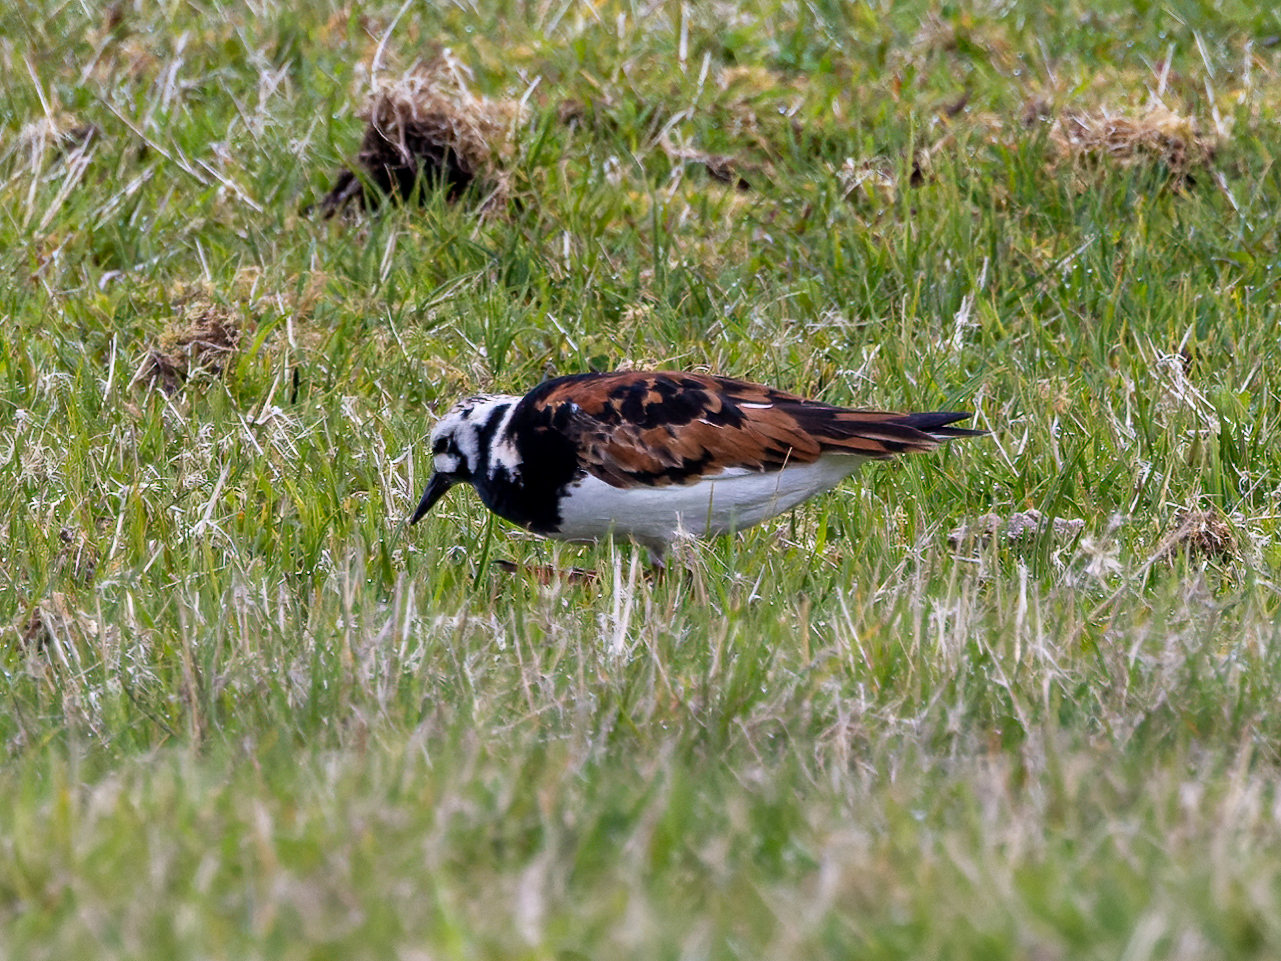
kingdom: Animalia
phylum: Chordata
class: Aves
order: Charadriiformes
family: Scolopacidae
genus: Arenaria
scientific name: Arenaria interpres
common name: Ruddy turnstone
